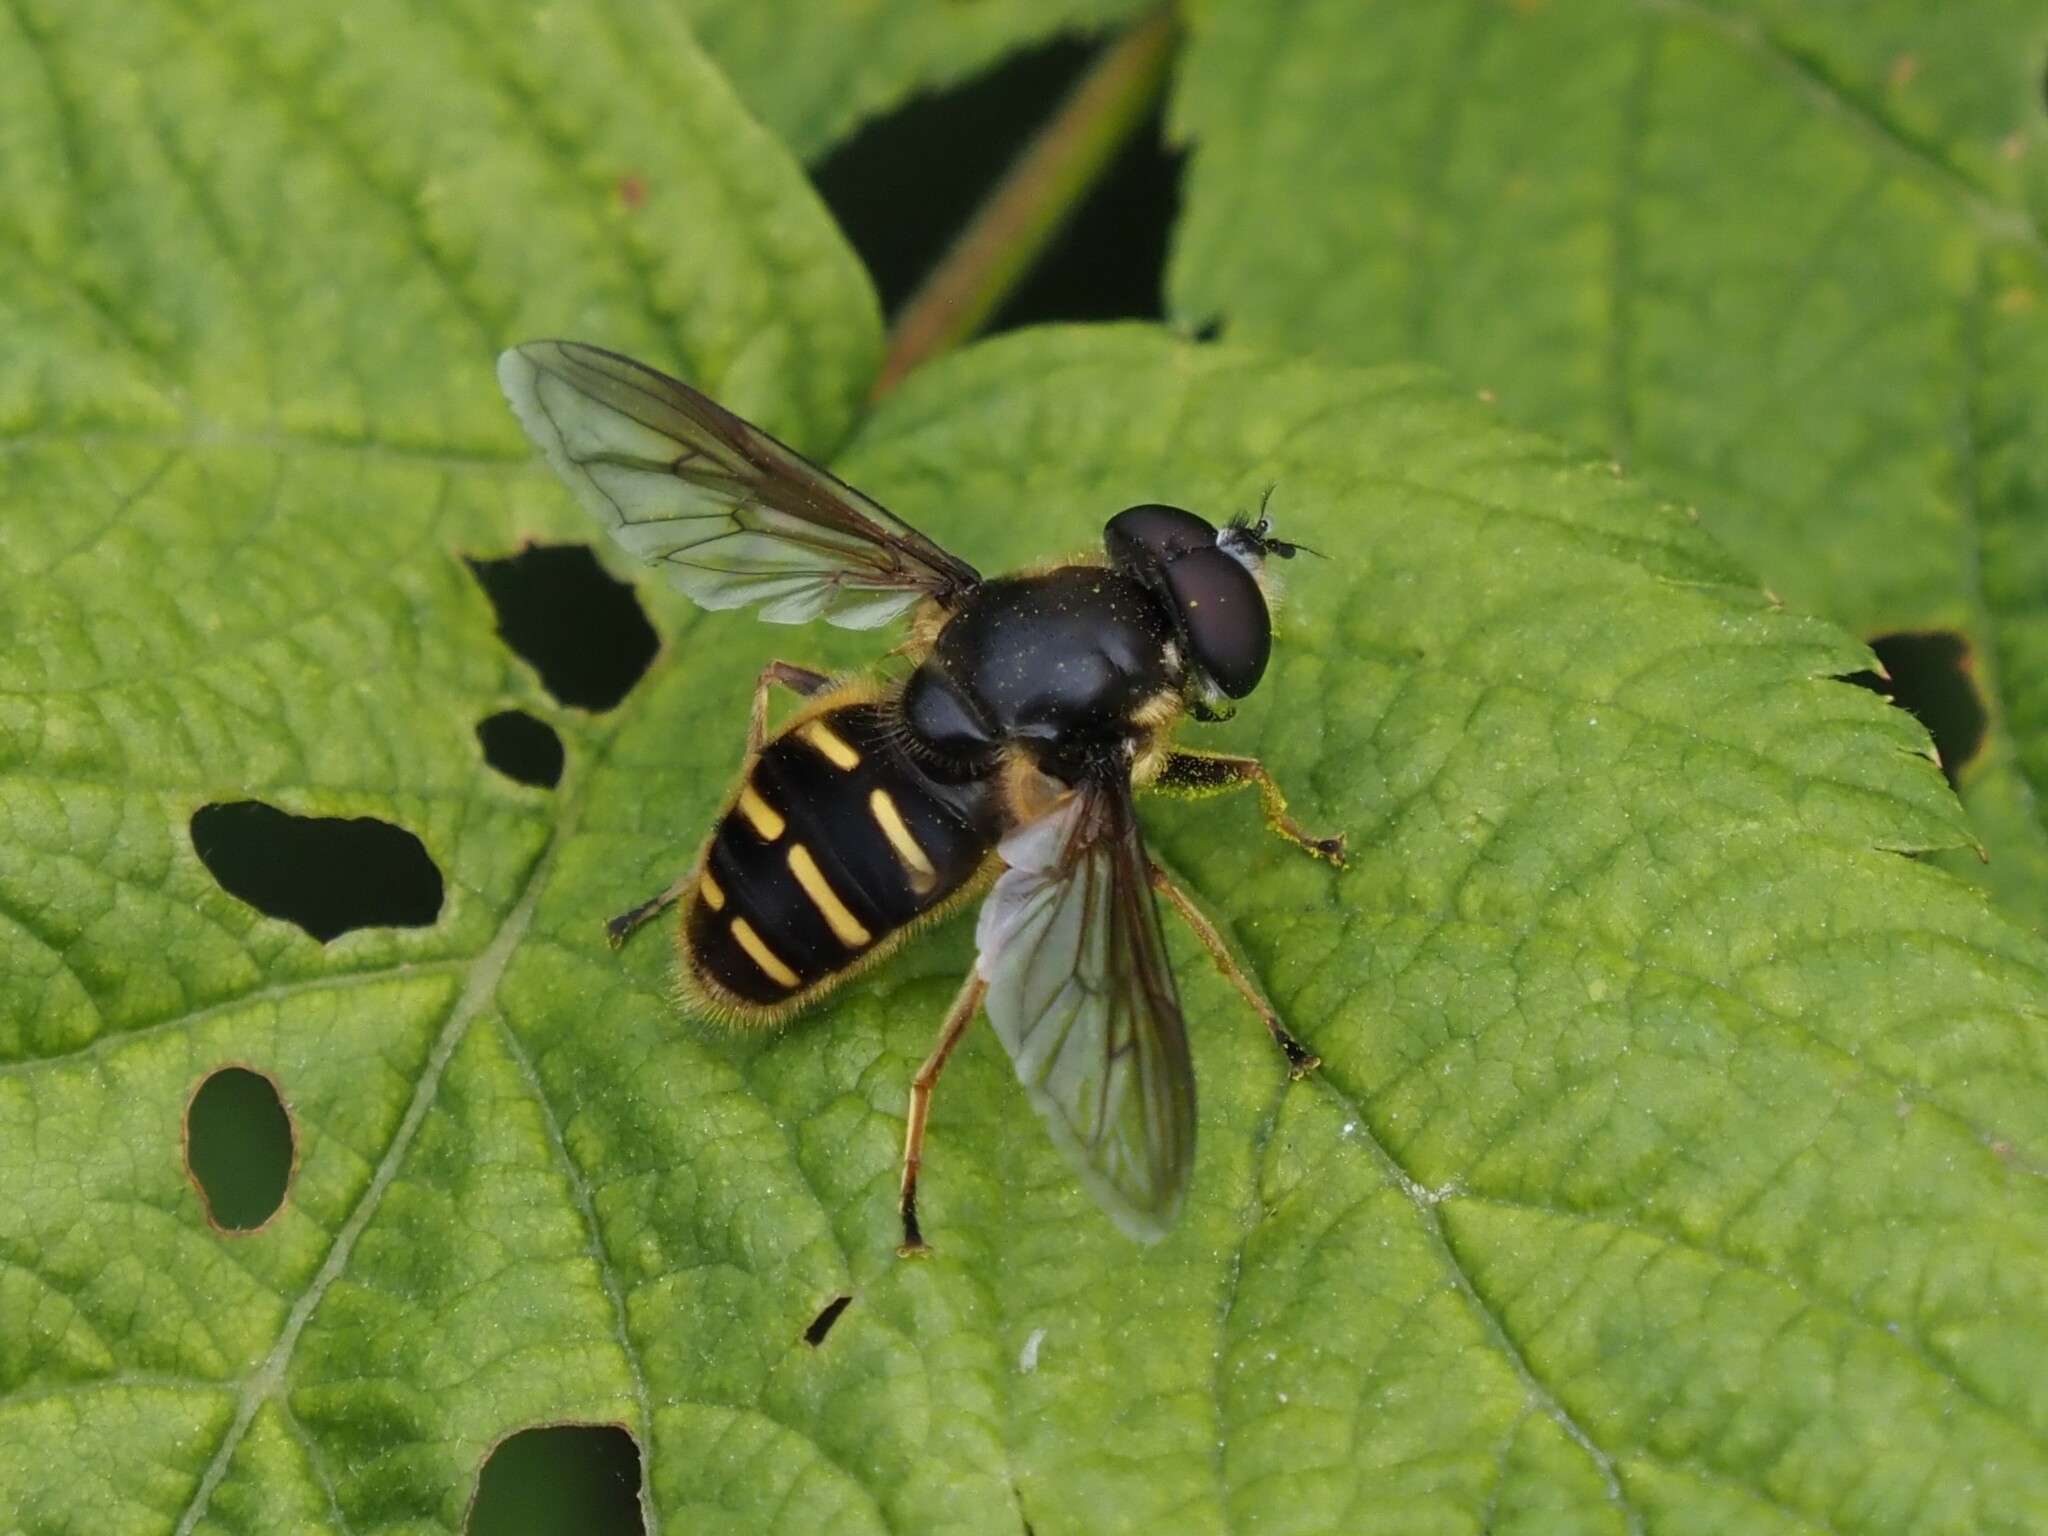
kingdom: Animalia
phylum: Arthropoda
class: Insecta
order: Diptera
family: Syrphidae
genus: Sericomyia
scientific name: Sericomyia chalcopyga
